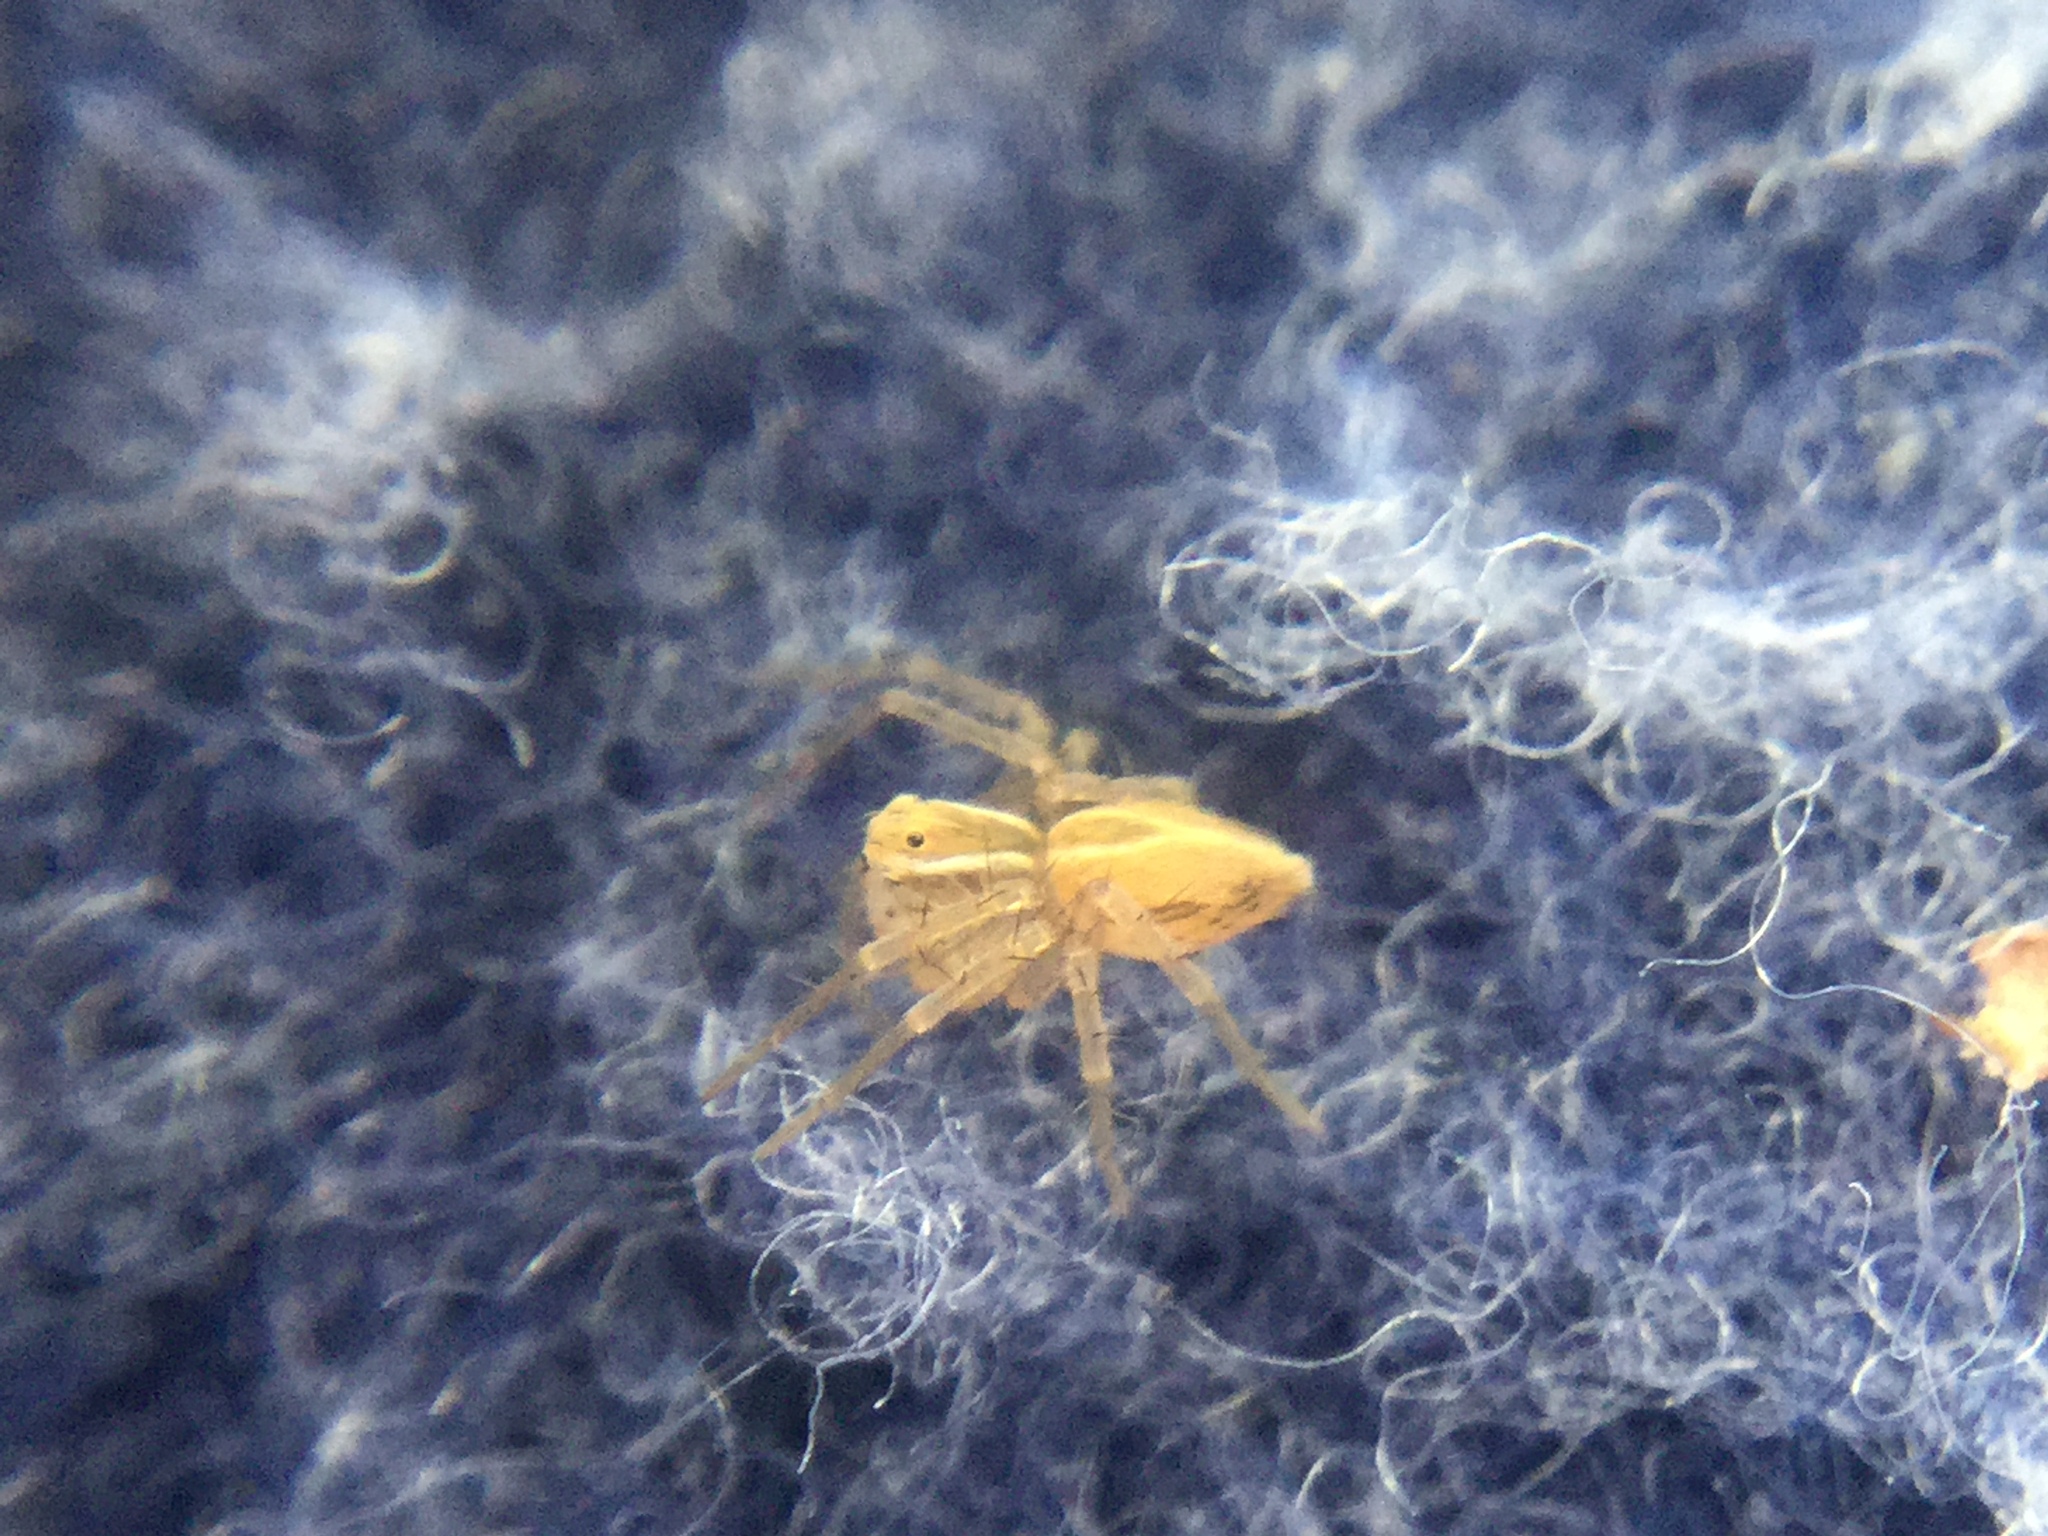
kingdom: Animalia
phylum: Arthropoda
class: Arachnida
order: Araneae
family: Oxyopidae
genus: Oxyopes
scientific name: Oxyopes salticus
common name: Lynx spiders
